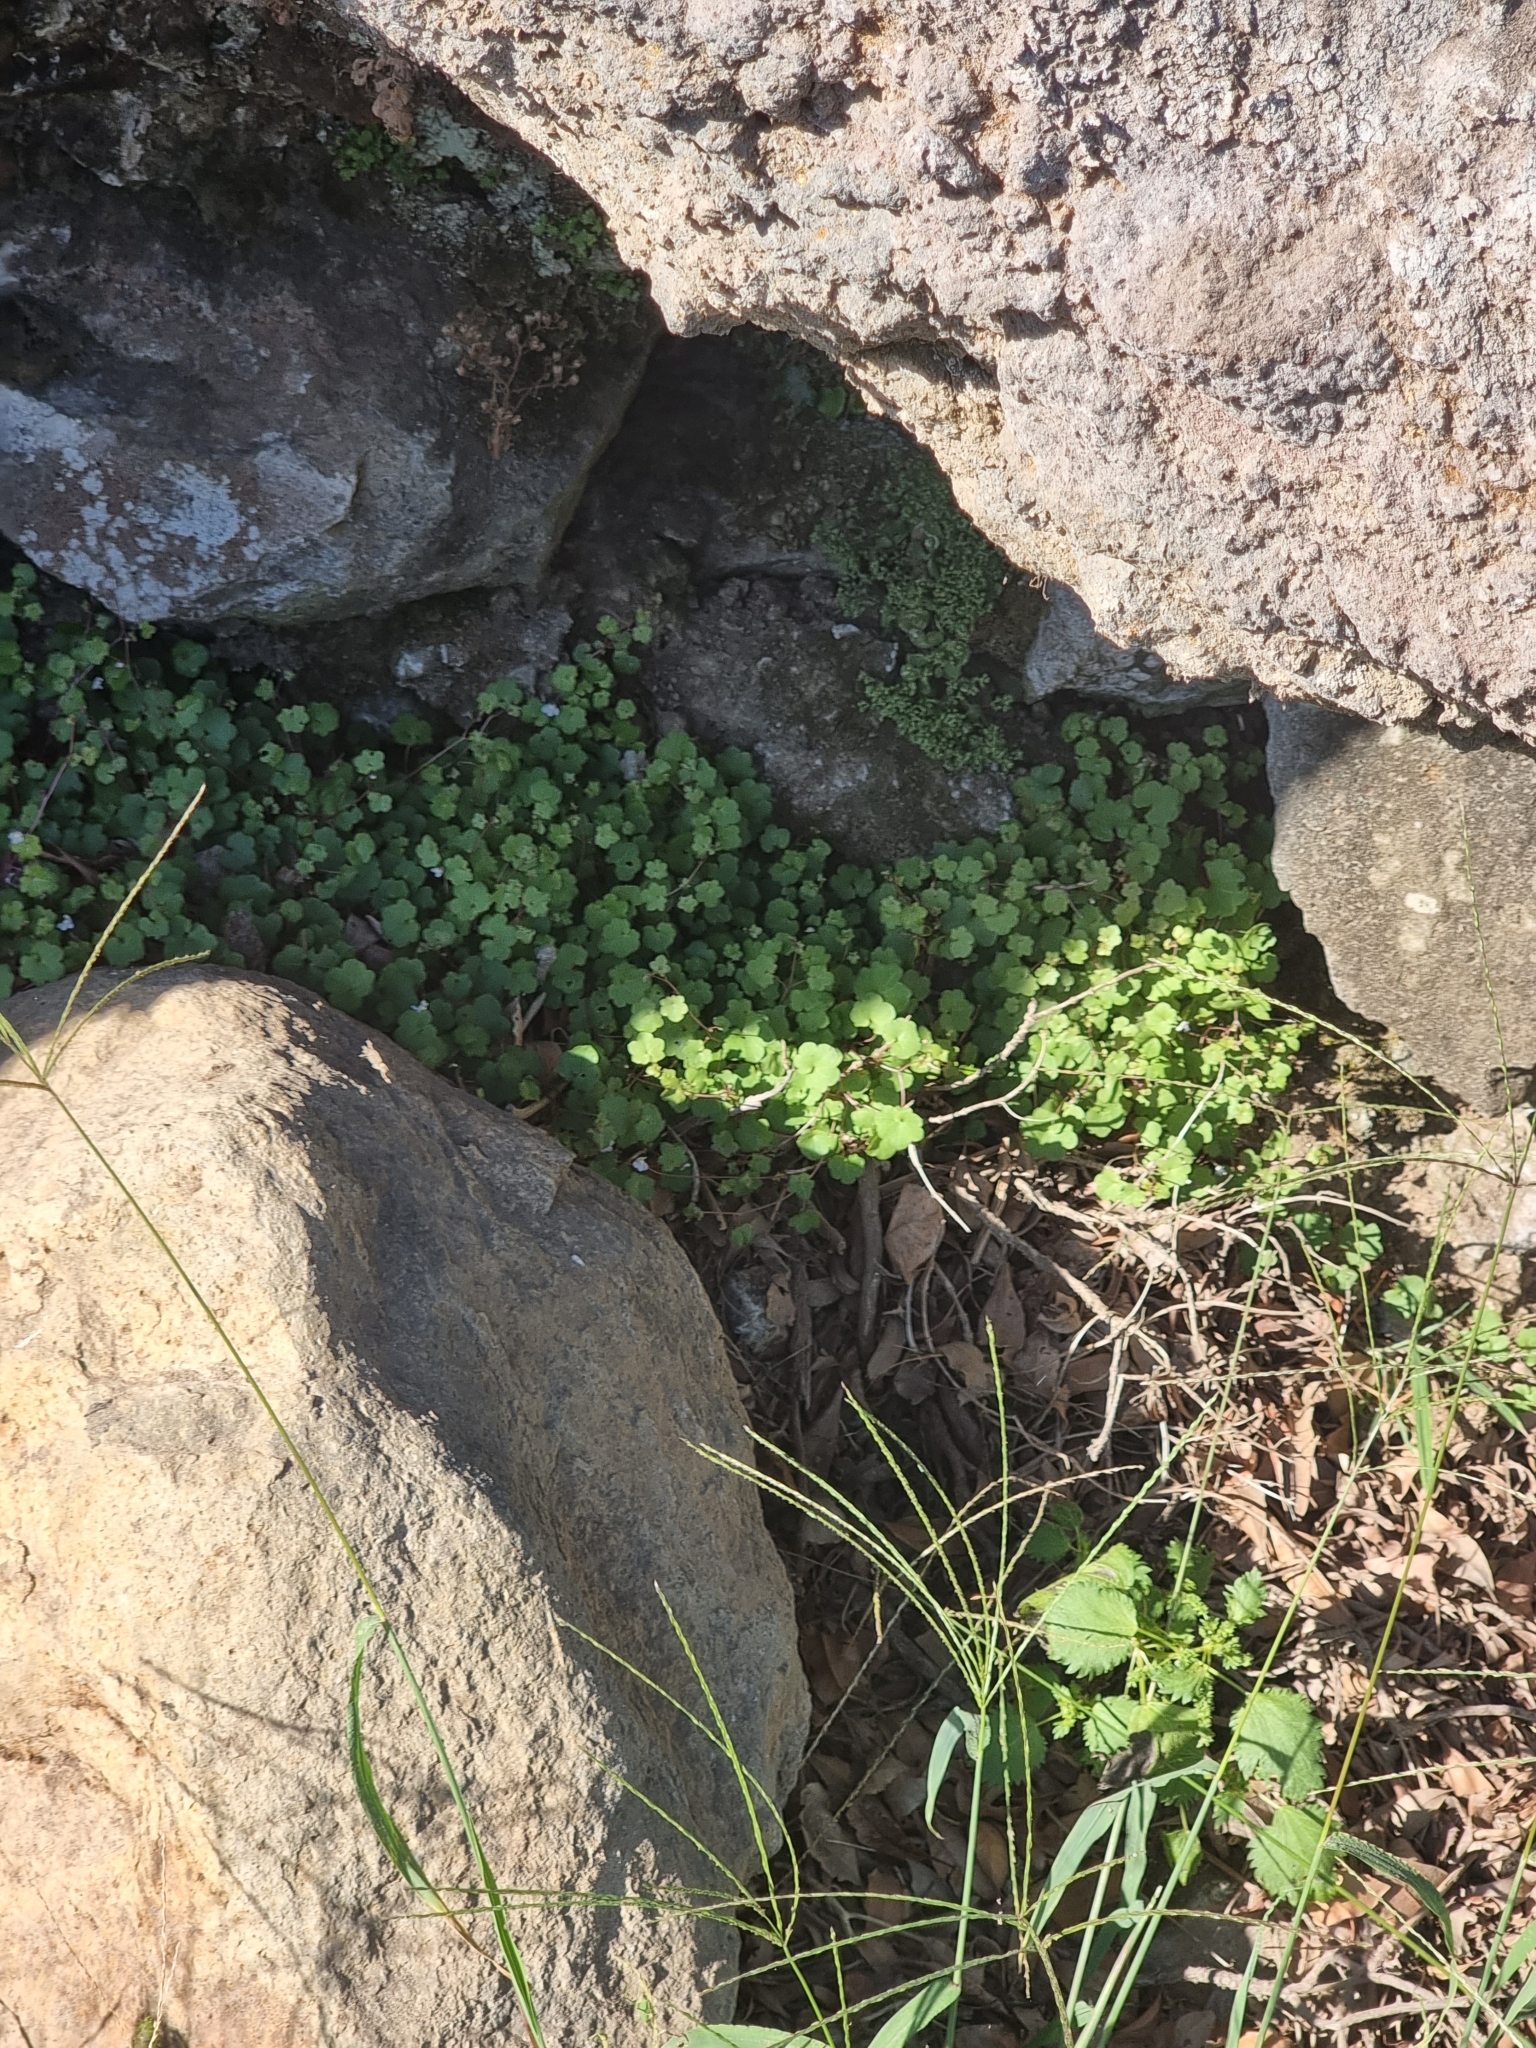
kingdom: Plantae
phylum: Tracheophyta
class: Magnoliopsida
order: Lamiales
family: Plantaginaceae
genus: Cymbalaria
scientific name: Cymbalaria muralis
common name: Ivy-leaved toadflax
